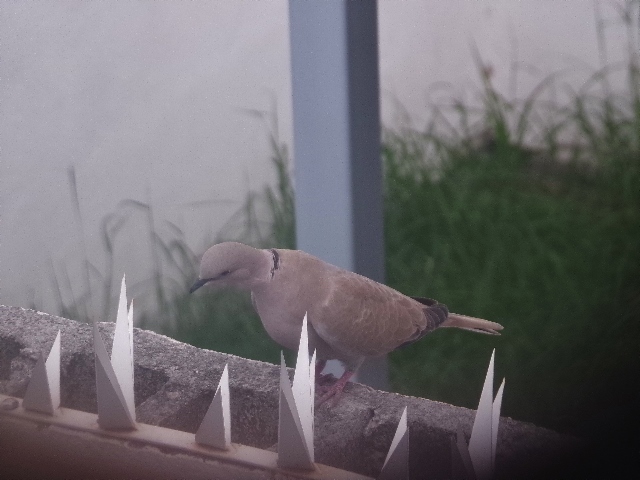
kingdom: Animalia
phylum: Chordata
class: Aves
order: Columbiformes
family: Columbidae
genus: Streptopelia
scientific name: Streptopelia decaocto
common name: Eurasian collared dove
